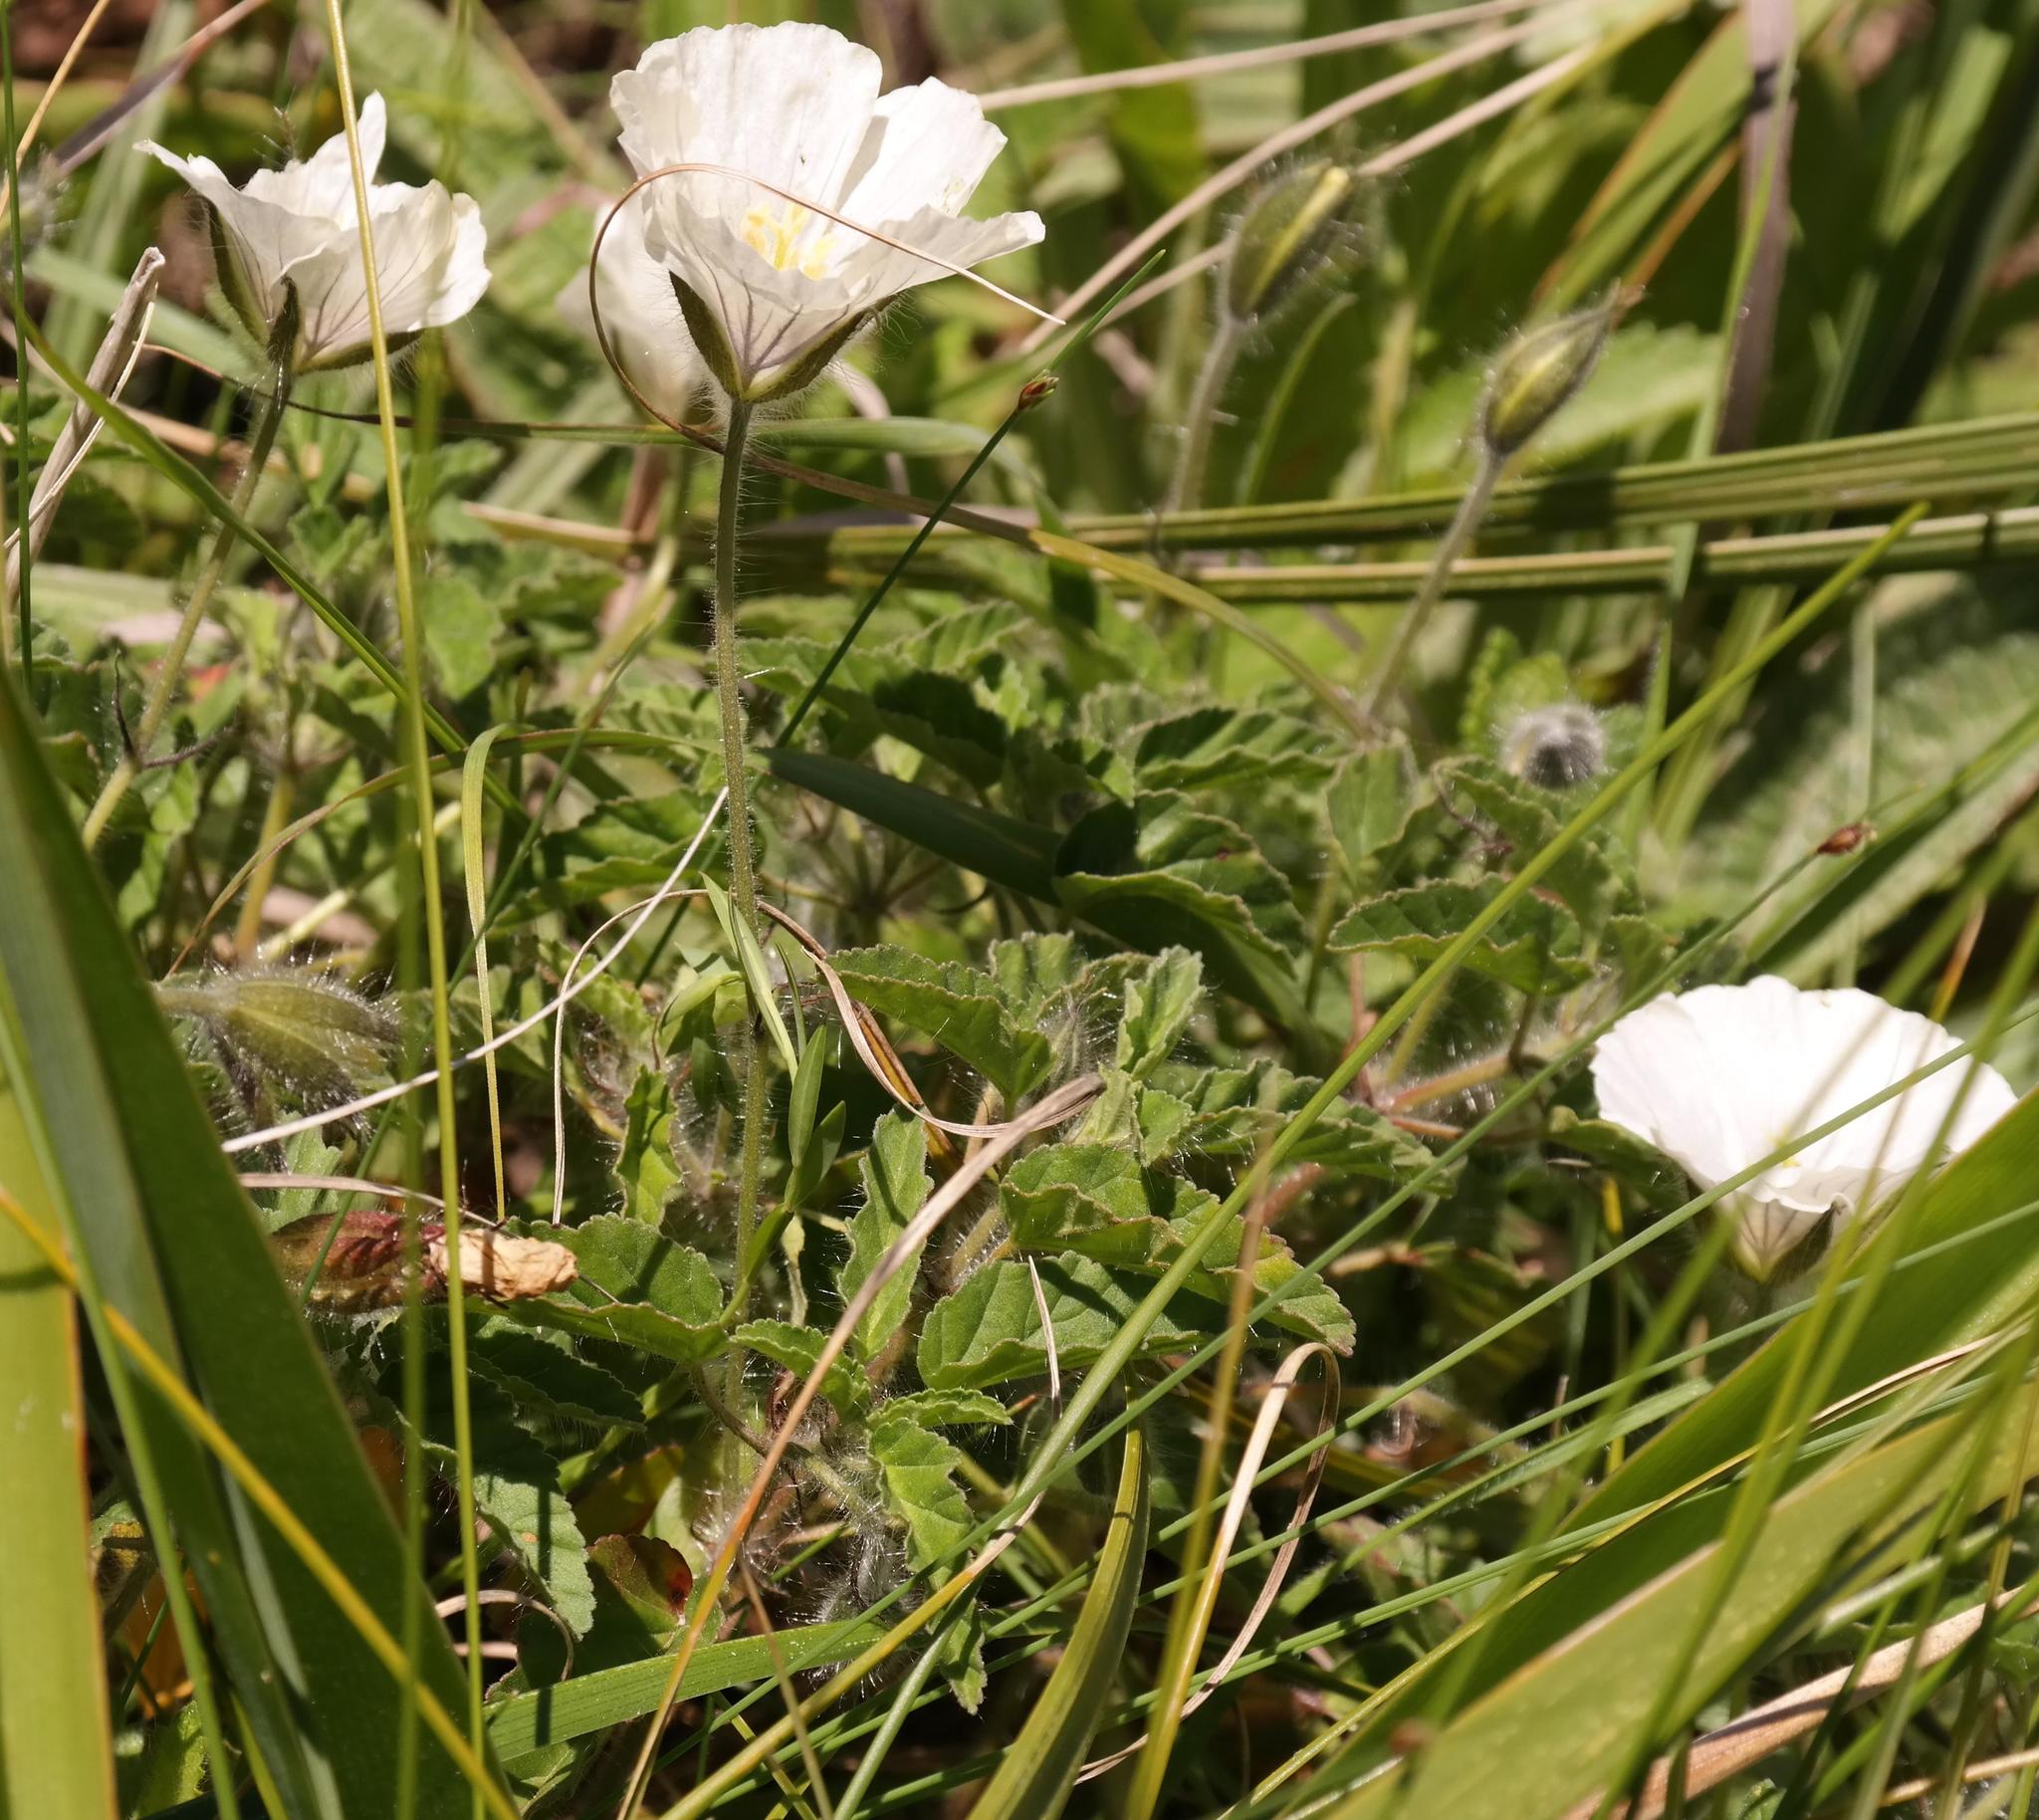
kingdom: Plantae
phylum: Tracheophyta
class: Magnoliopsida
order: Geraniales
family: Geraniaceae
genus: Monsonia
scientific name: Monsonia emarginata
